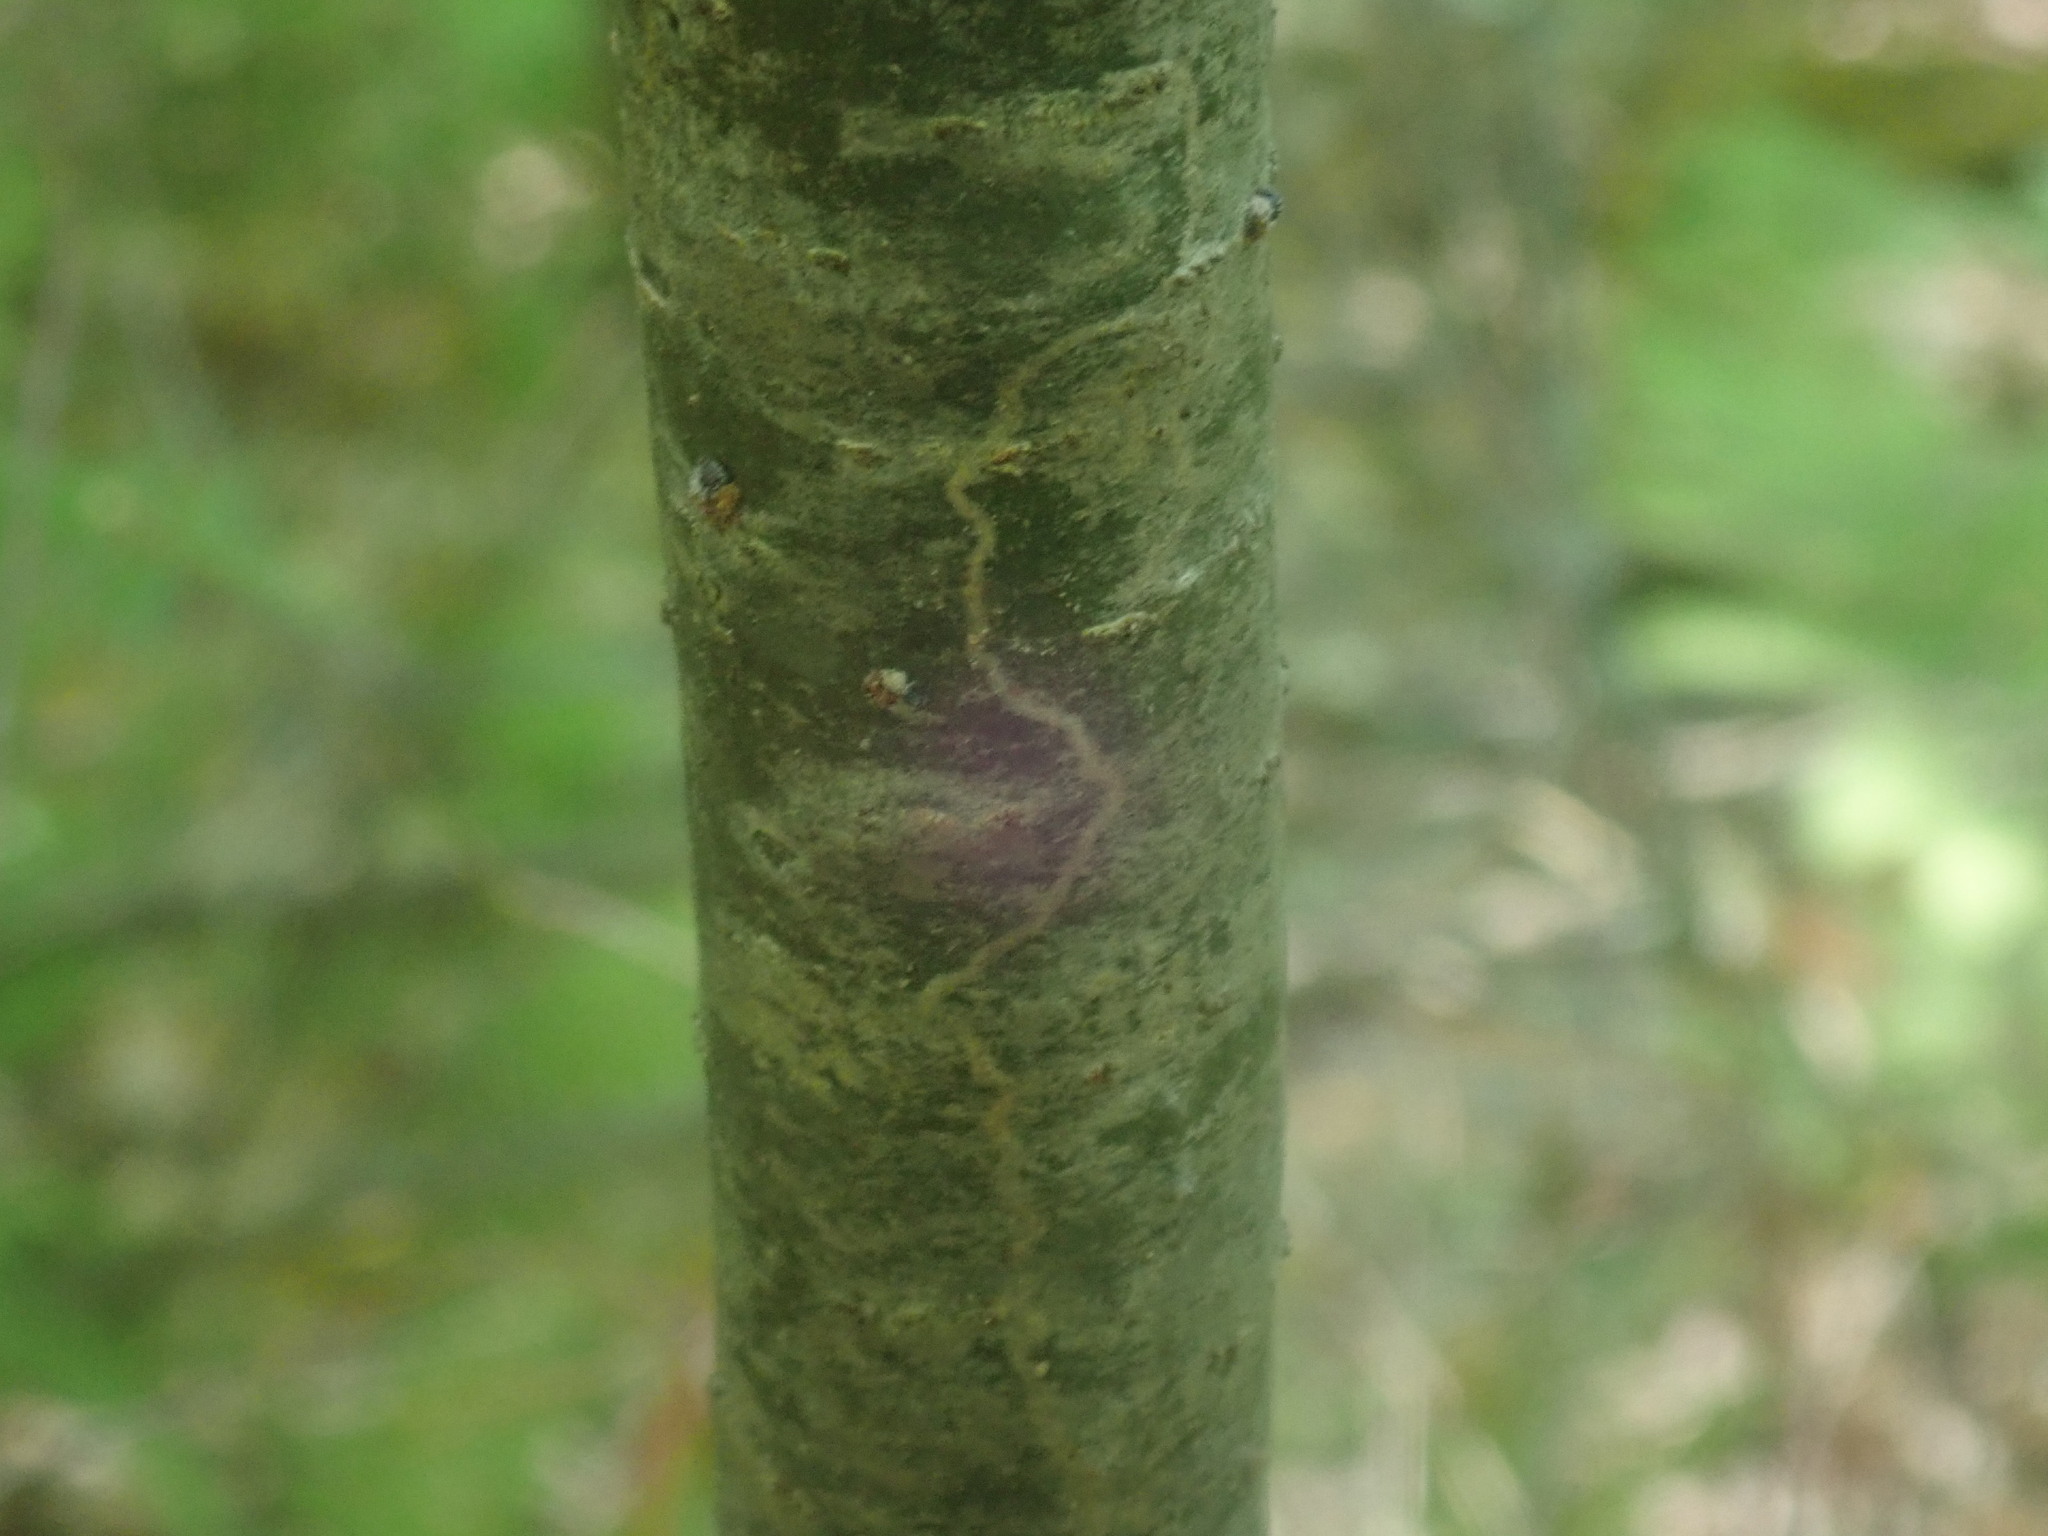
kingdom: Animalia
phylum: Arthropoda
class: Insecta
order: Lepidoptera
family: Gracillariidae
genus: Marmara
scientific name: Marmara fasciella
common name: White pine barkminer moth
